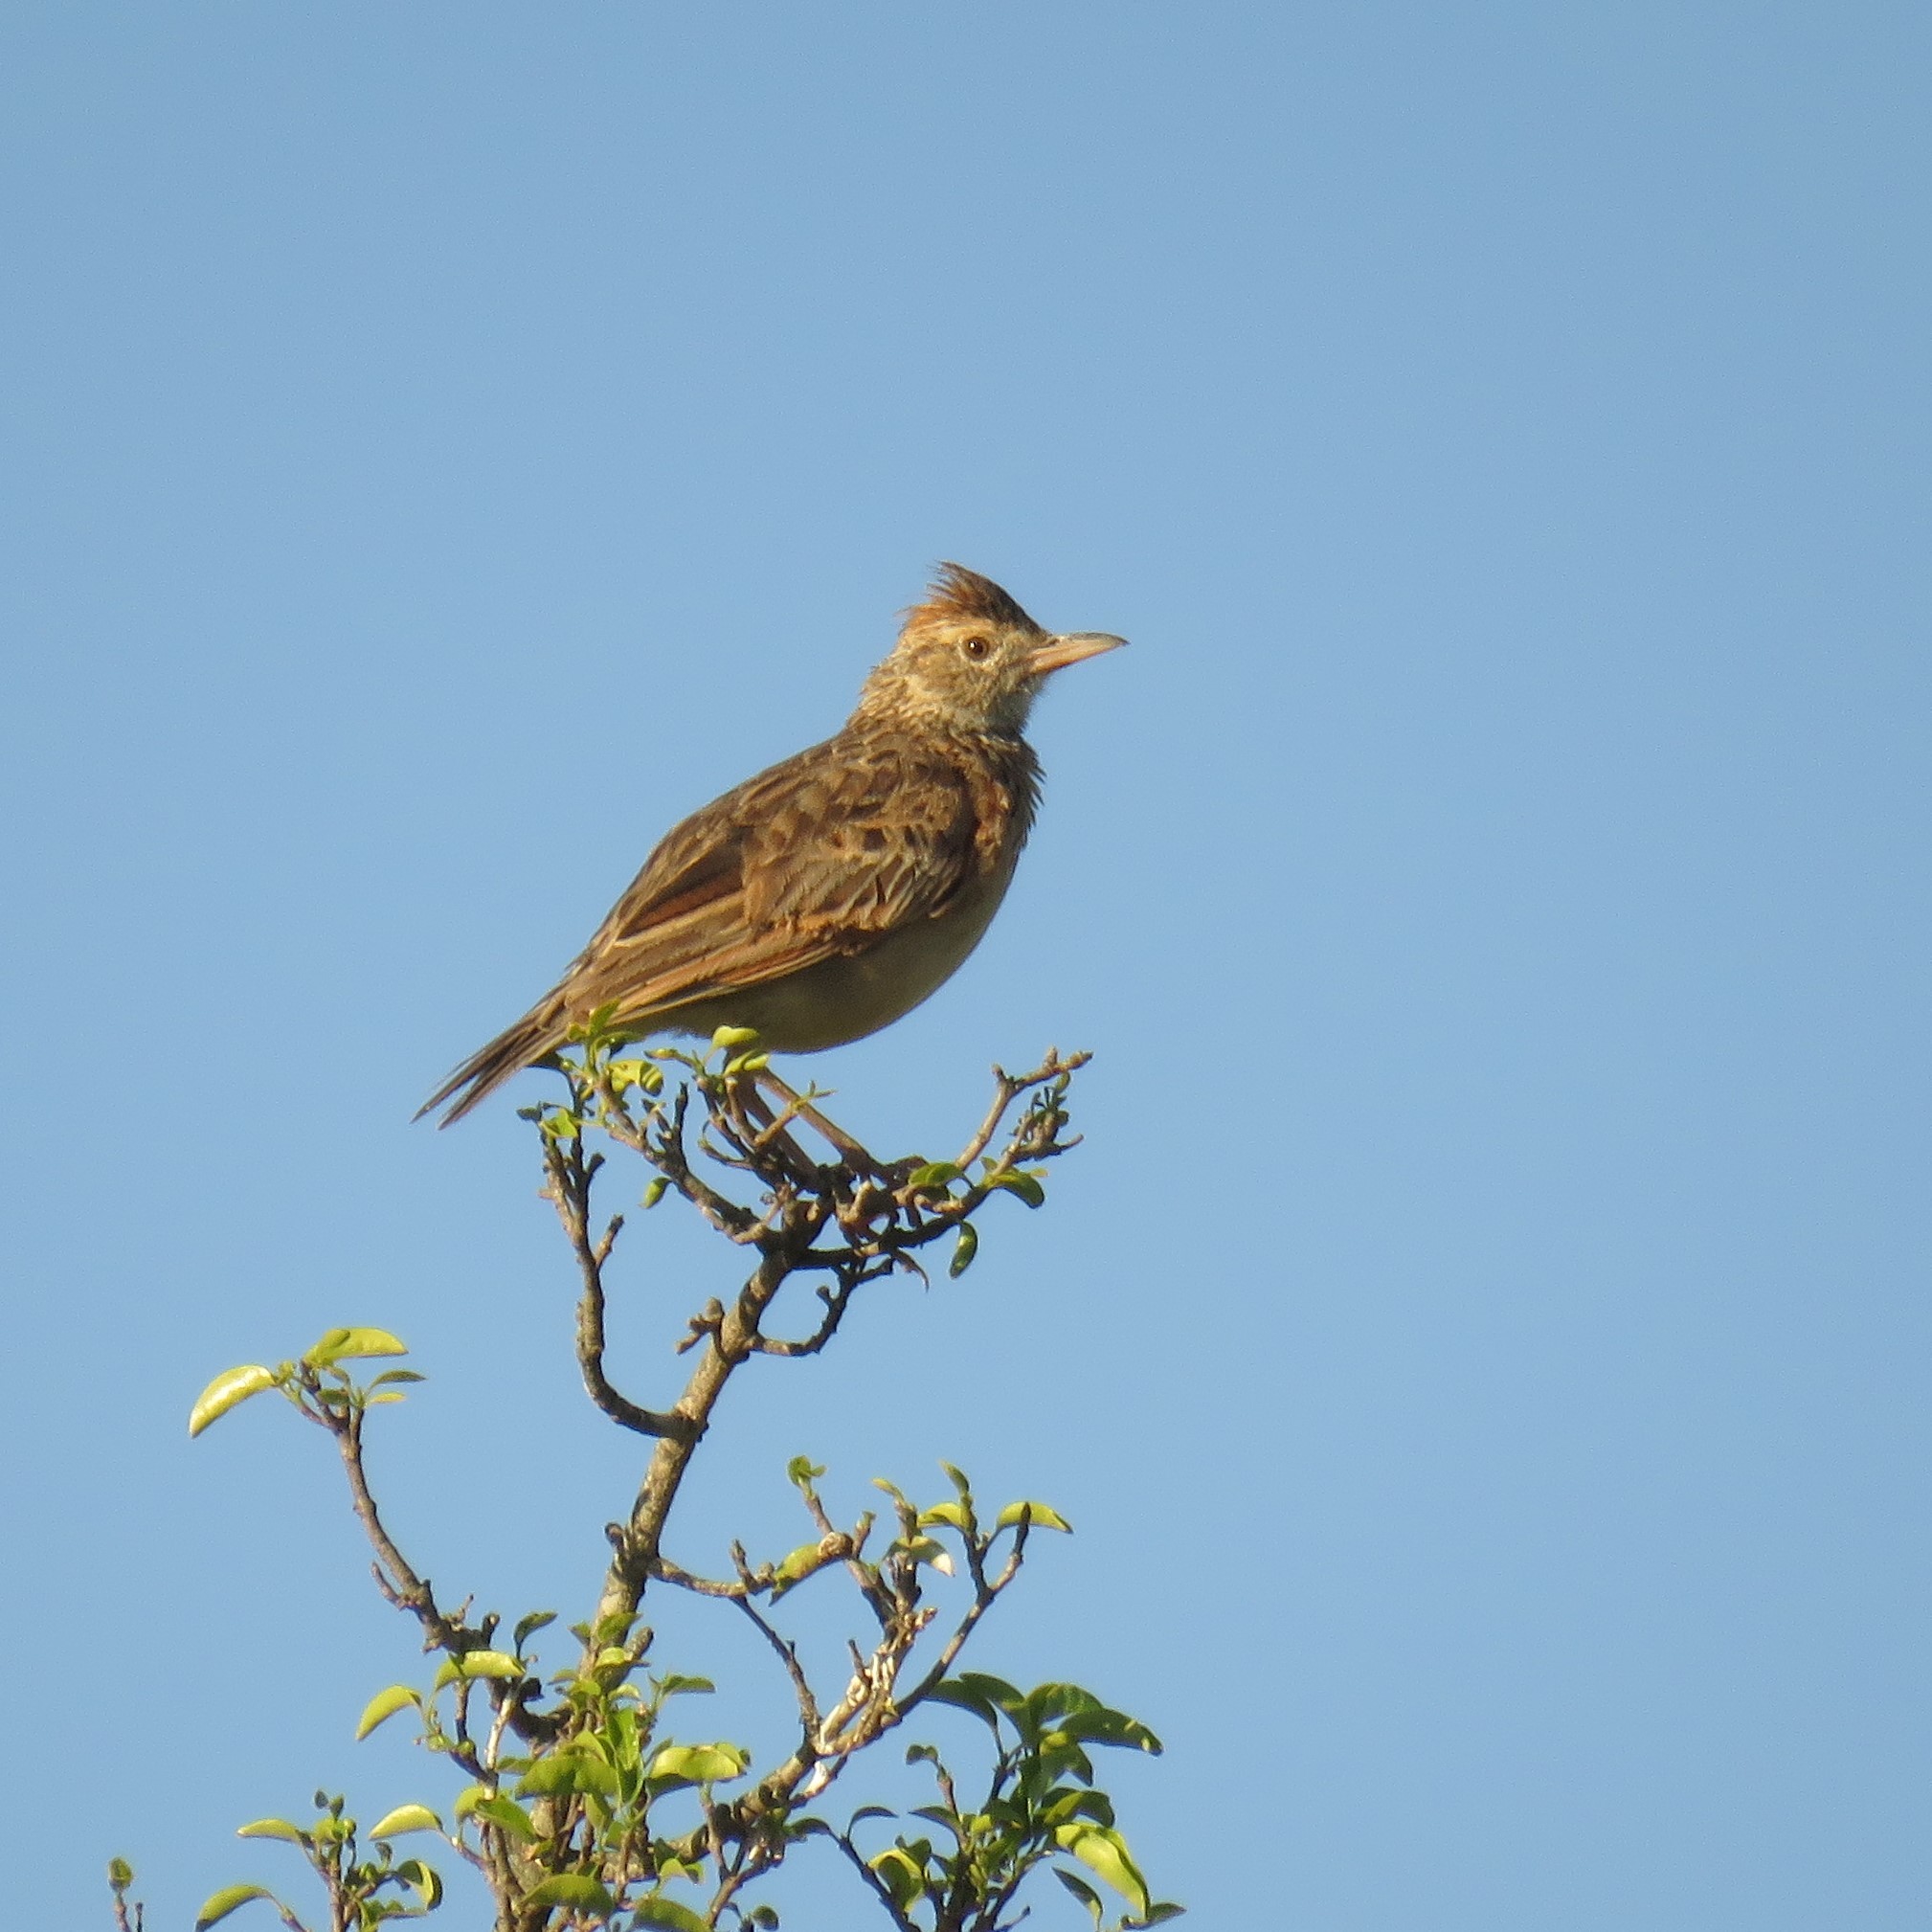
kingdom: Animalia
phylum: Chordata
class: Aves
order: Passeriformes
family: Alaudidae
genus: Mirafra
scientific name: Mirafra africana
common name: Rufous-naped lark
